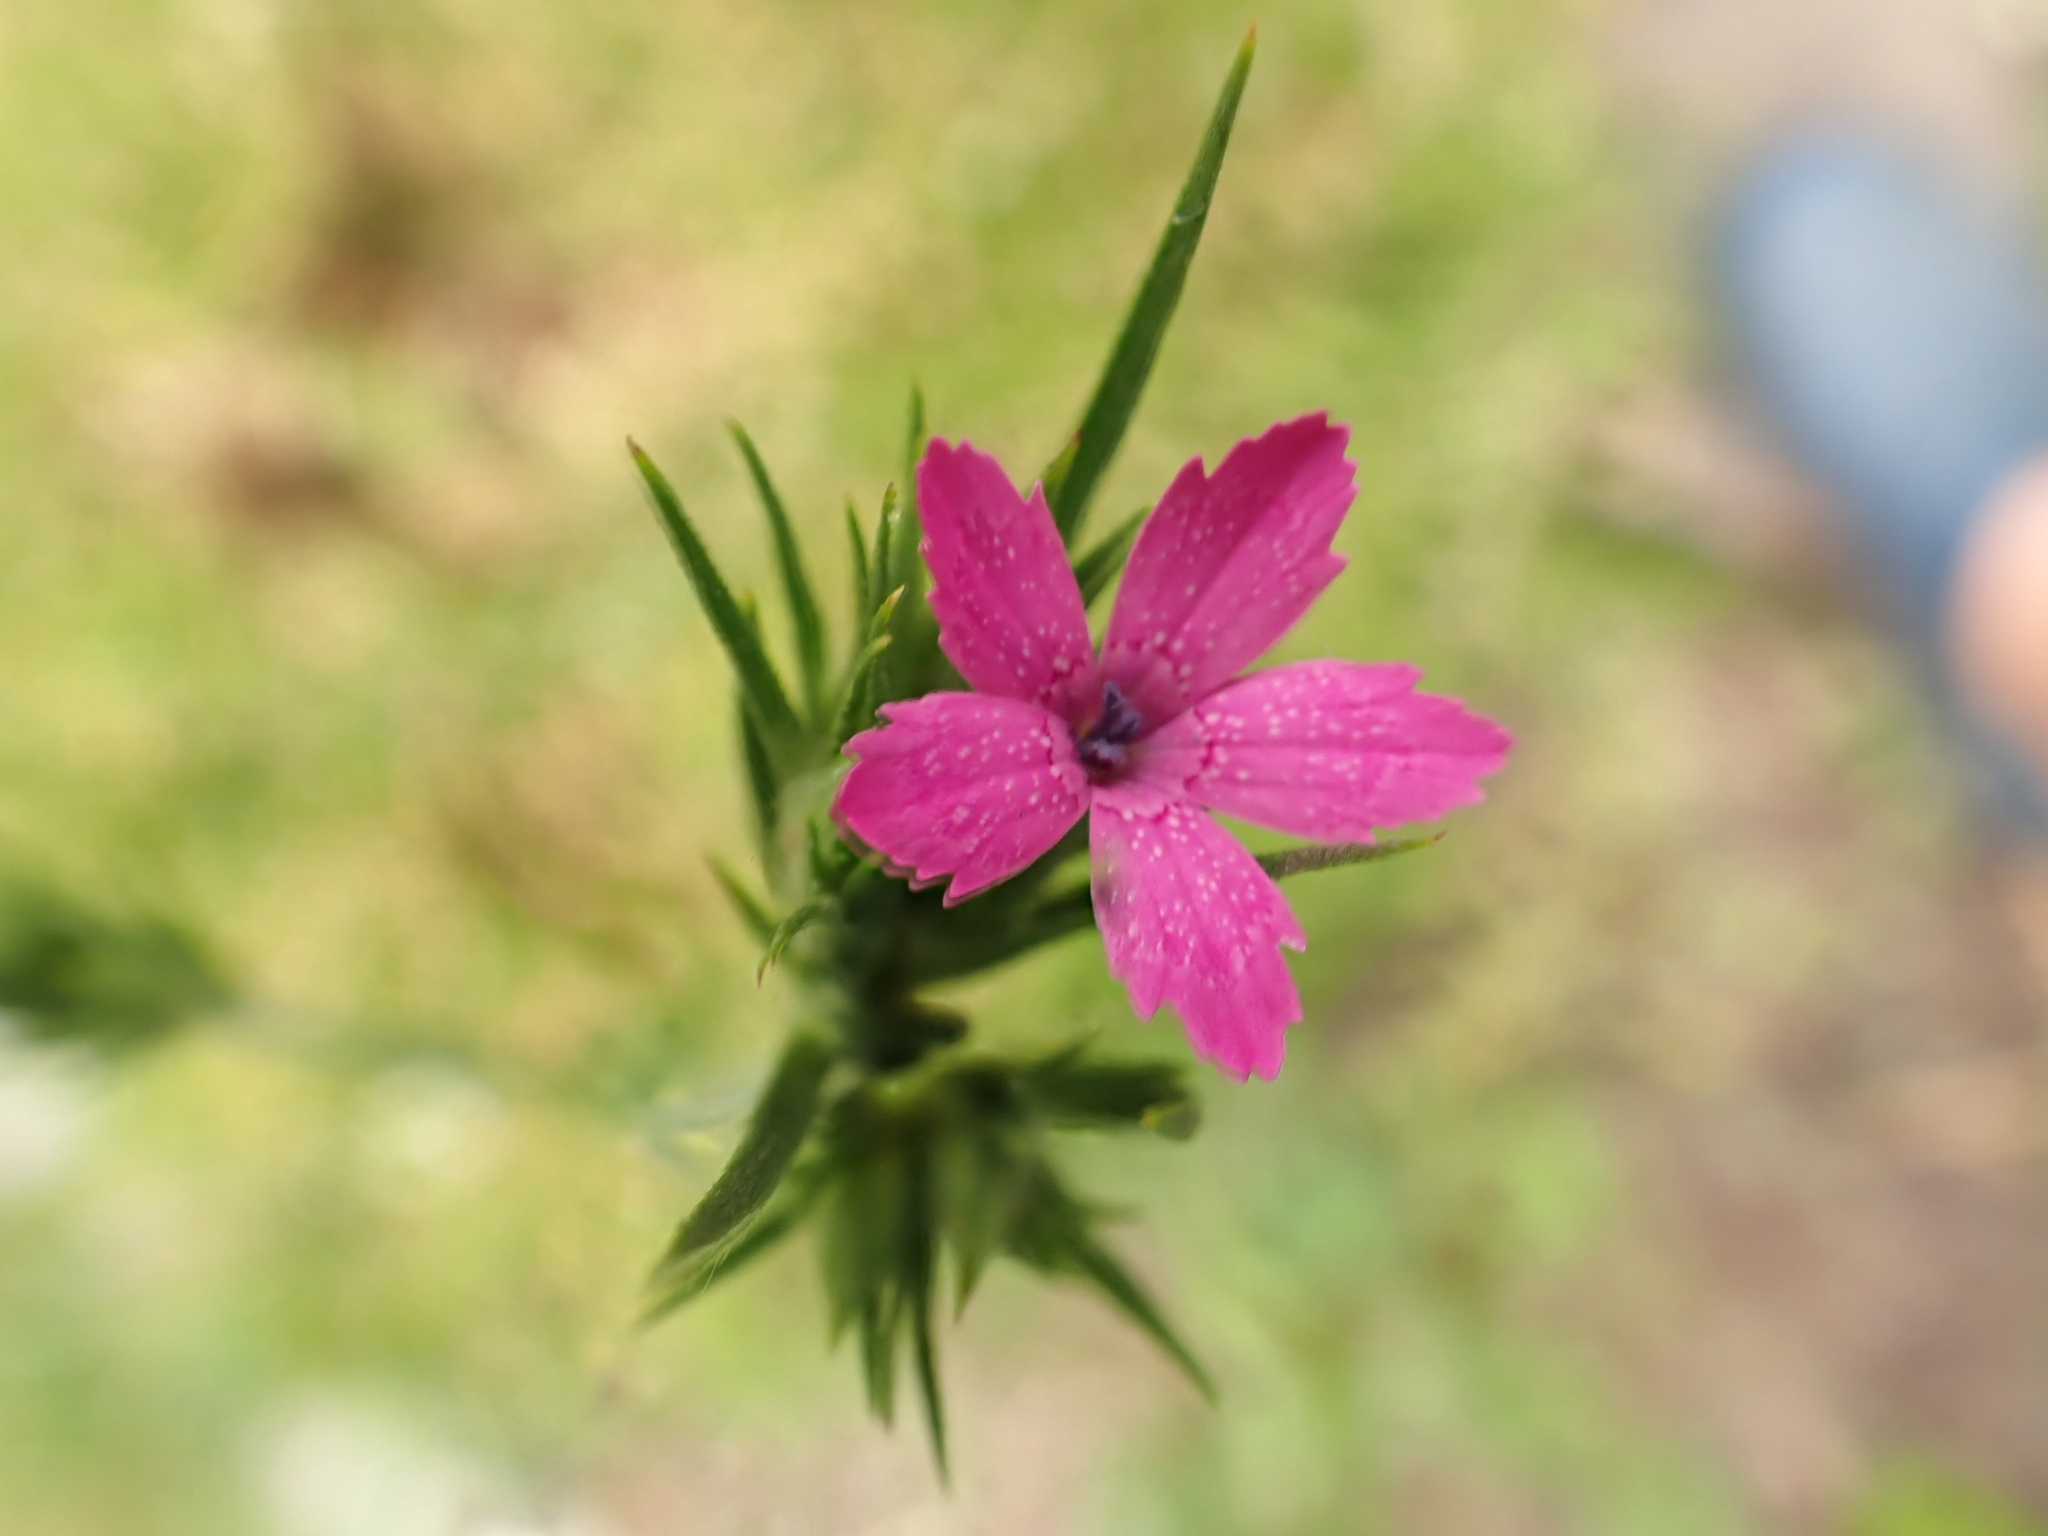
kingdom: Plantae
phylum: Tracheophyta
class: Magnoliopsida
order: Caryophyllales
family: Caryophyllaceae
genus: Dianthus
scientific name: Dianthus armeria
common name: Deptford pink
